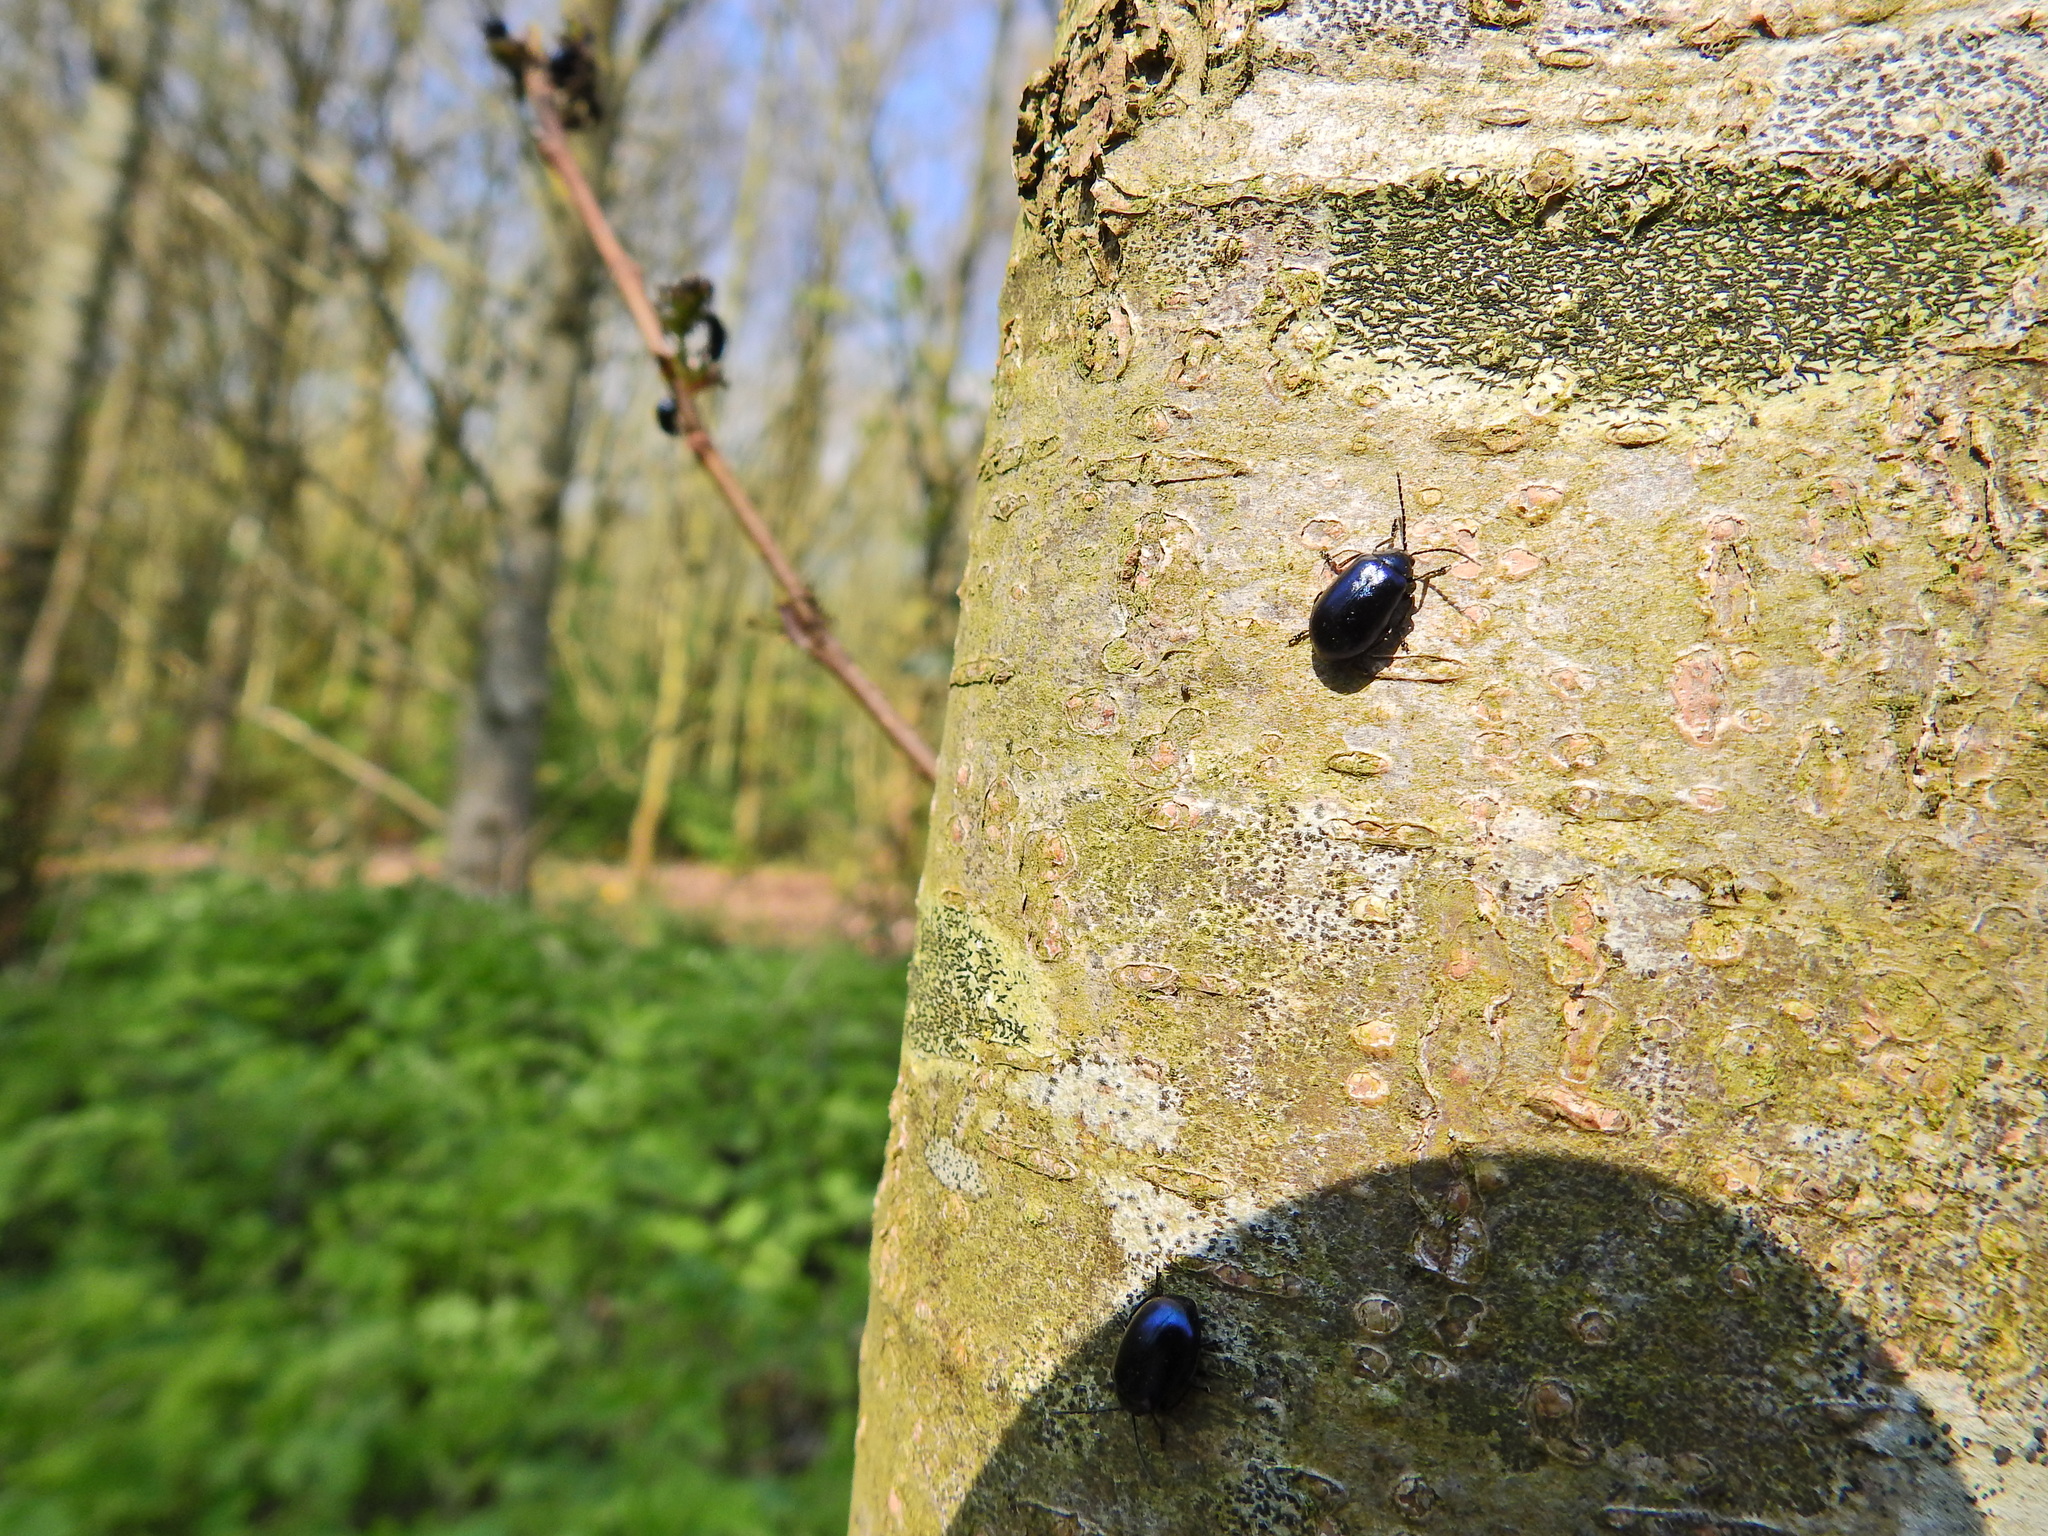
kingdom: Animalia
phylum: Arthropoda
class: Insecta
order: Coleoptera
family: Chrysomelidae
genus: Agelastica
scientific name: Agelastica alni
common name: Alder leaf beetle
